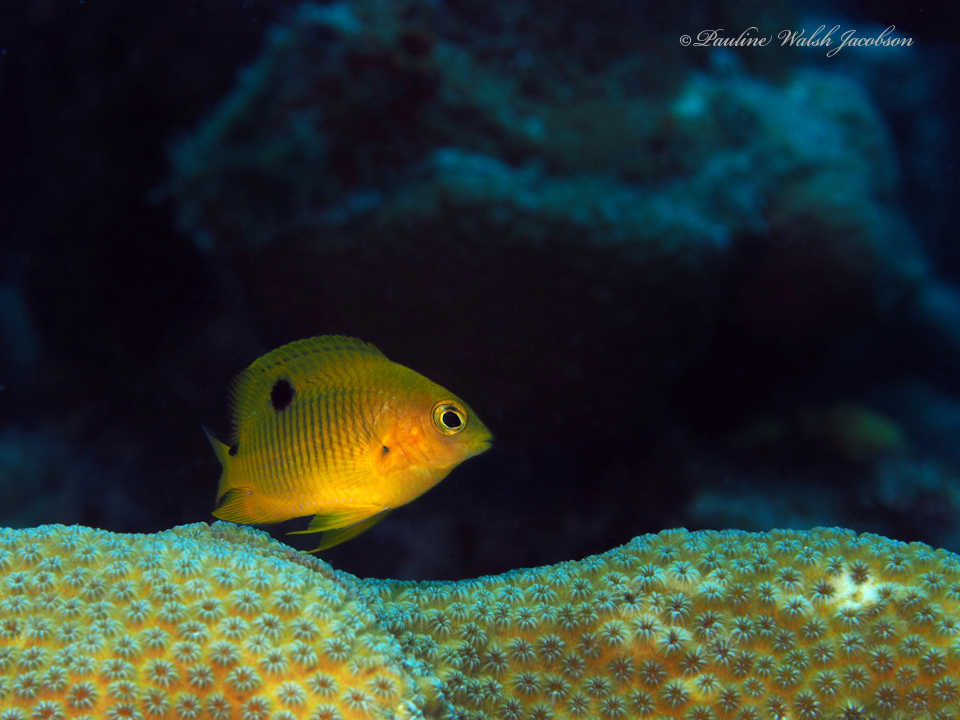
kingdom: Animalia
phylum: Chordata
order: Perciformes
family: Pomacentridae
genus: Stegastes
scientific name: Stegastes planifrons
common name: Threespot damselfish
